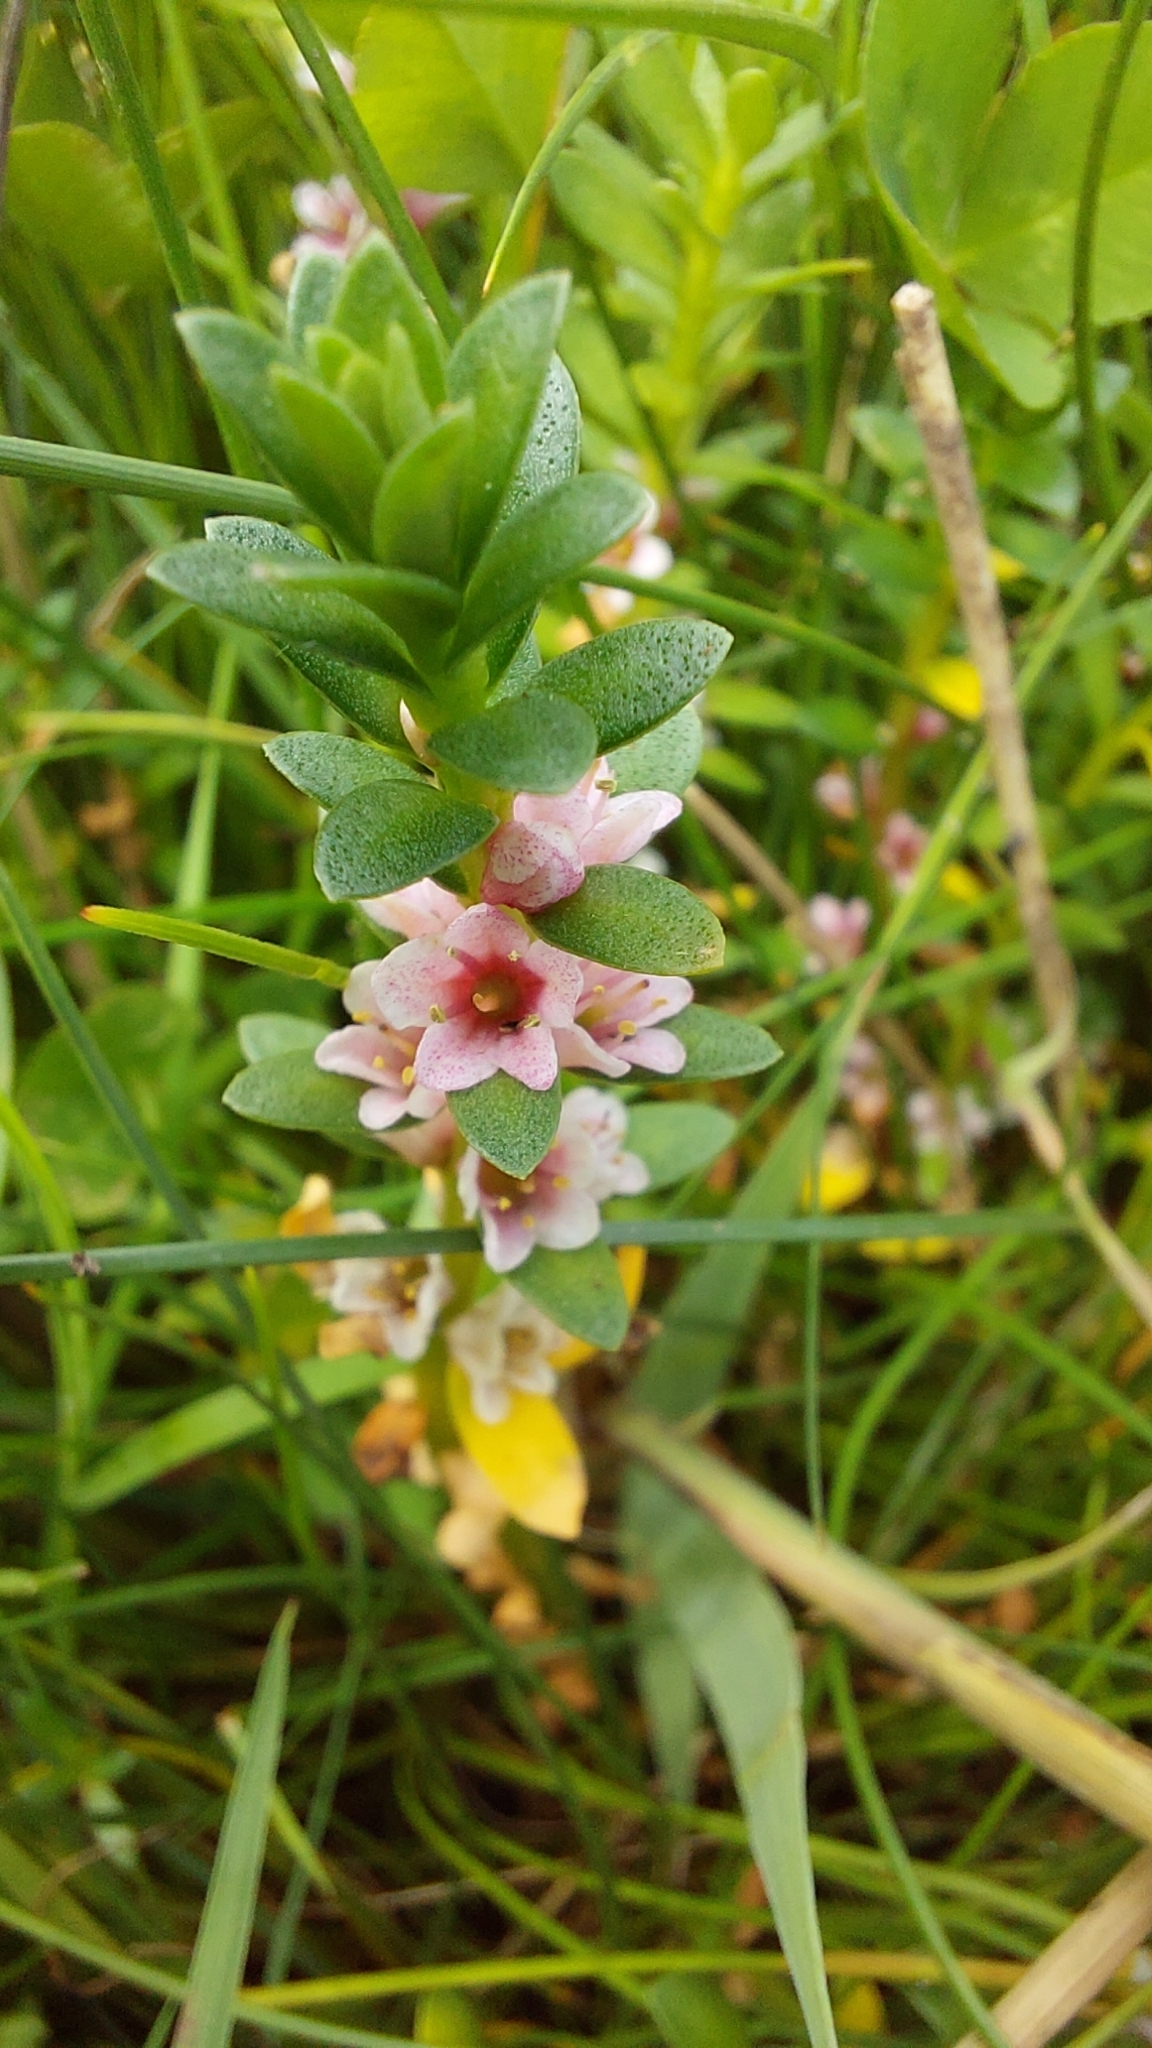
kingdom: Plantae
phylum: Tracheophyta
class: Magnoliopsida
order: Ericales
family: Primulaceae
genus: Lysimachia
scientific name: Lysimachia maritima
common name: Sea milkwort
